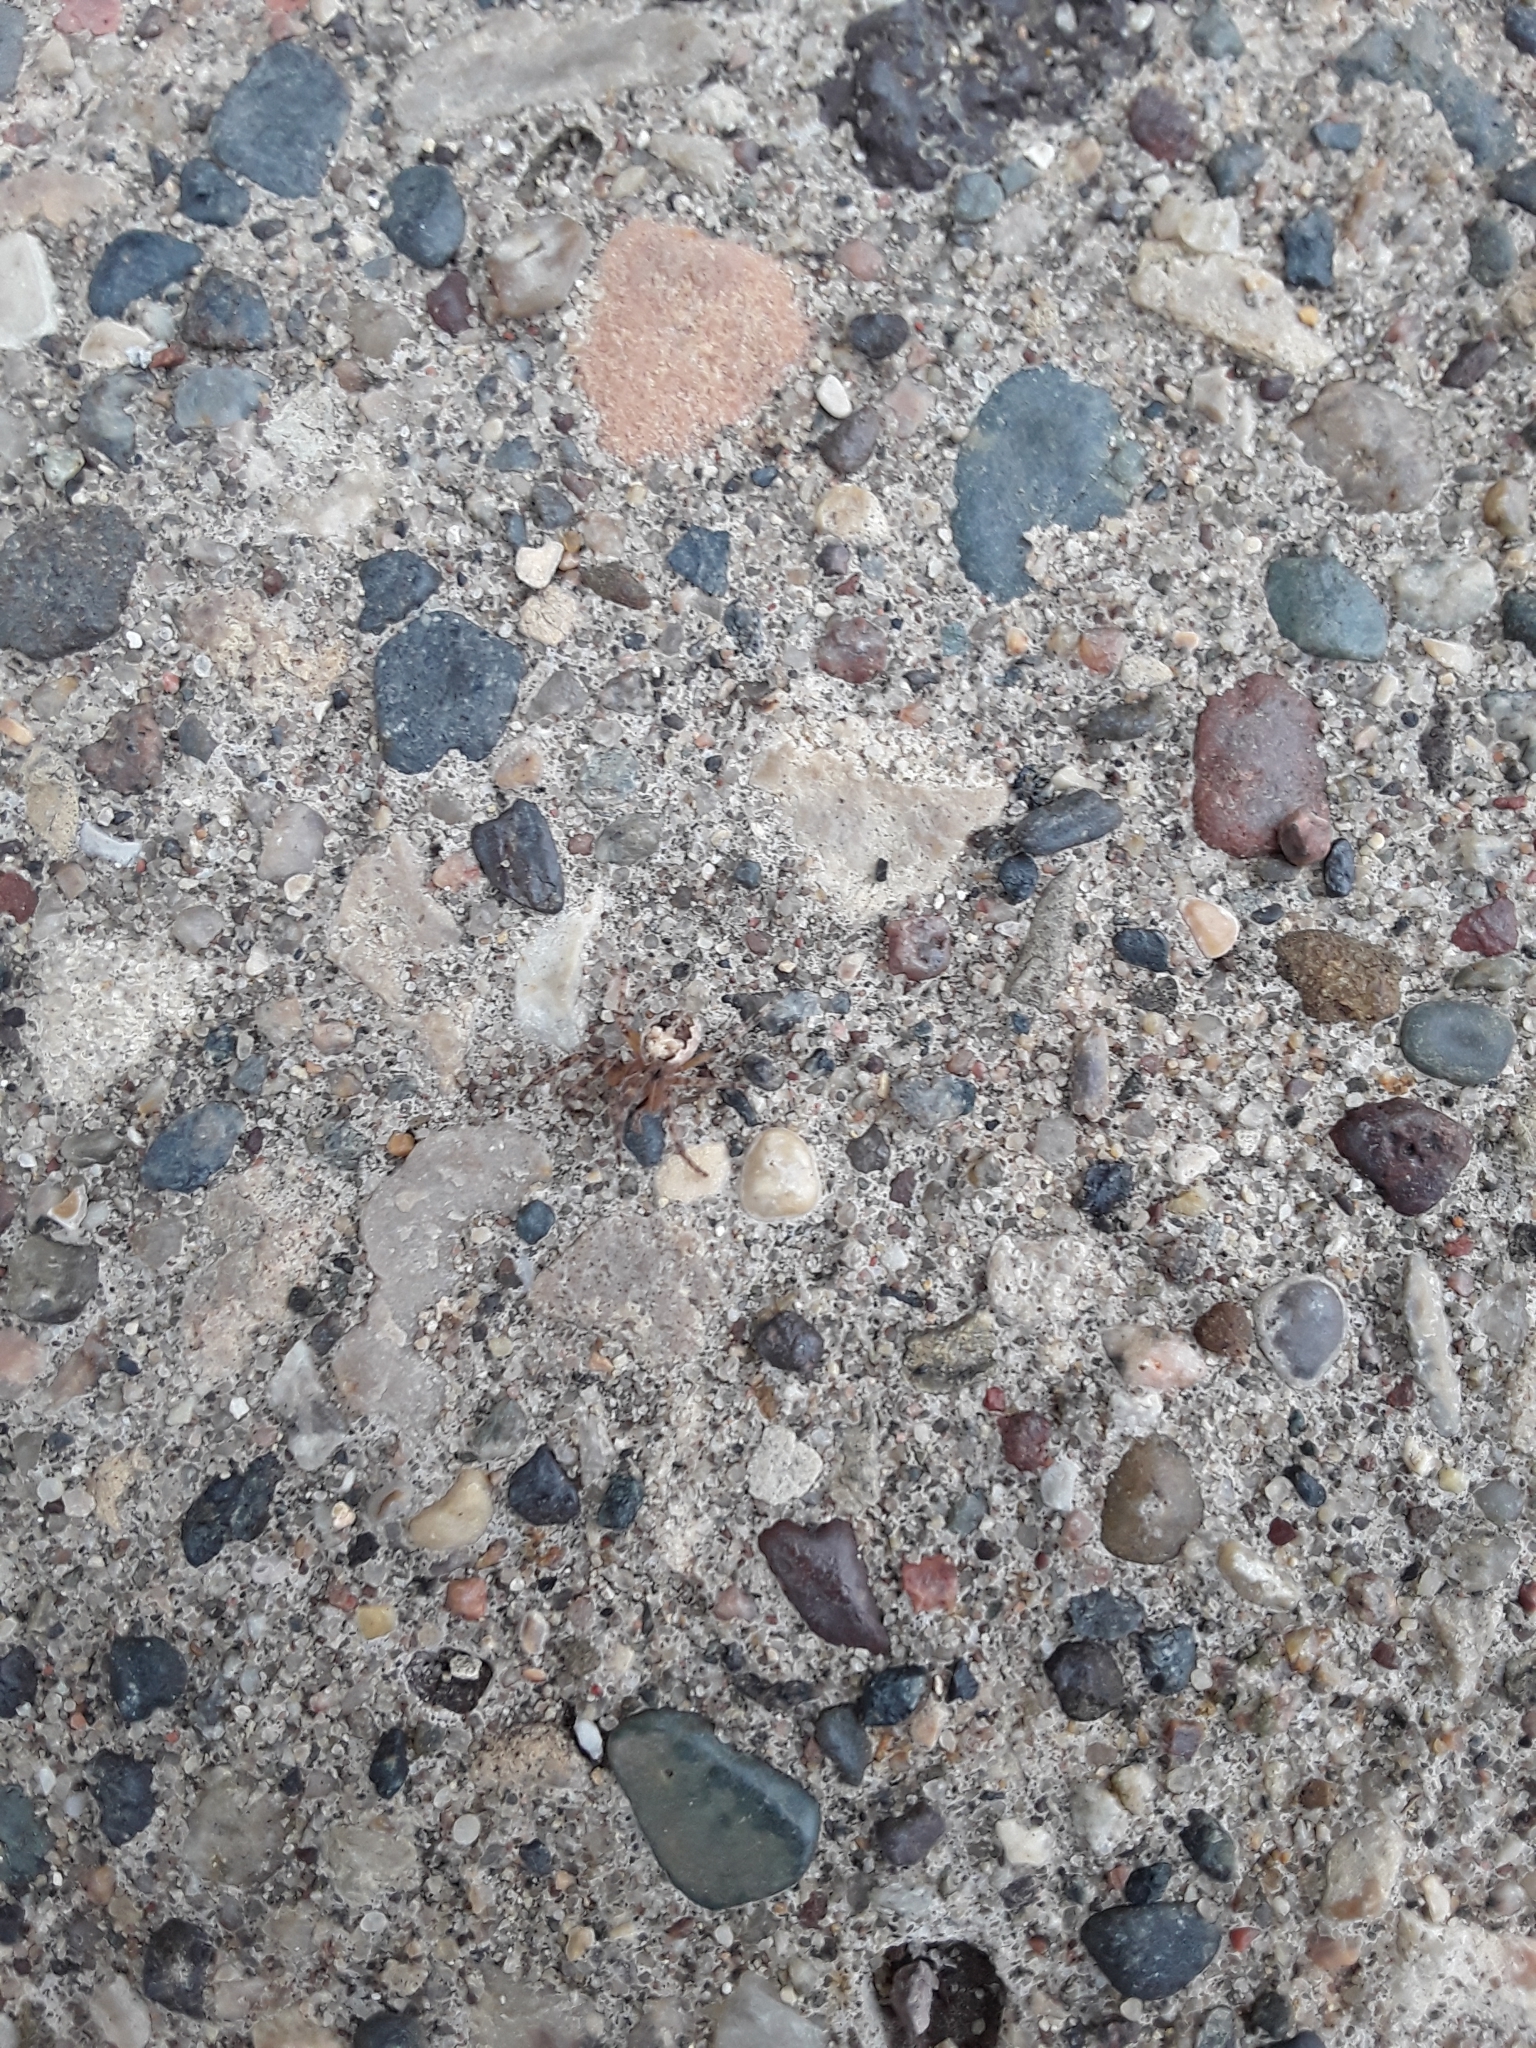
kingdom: Animalia
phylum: Arthropoda
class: Arachnida
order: Araneae
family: Araneidae
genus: Larinioides
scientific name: Larinioides
